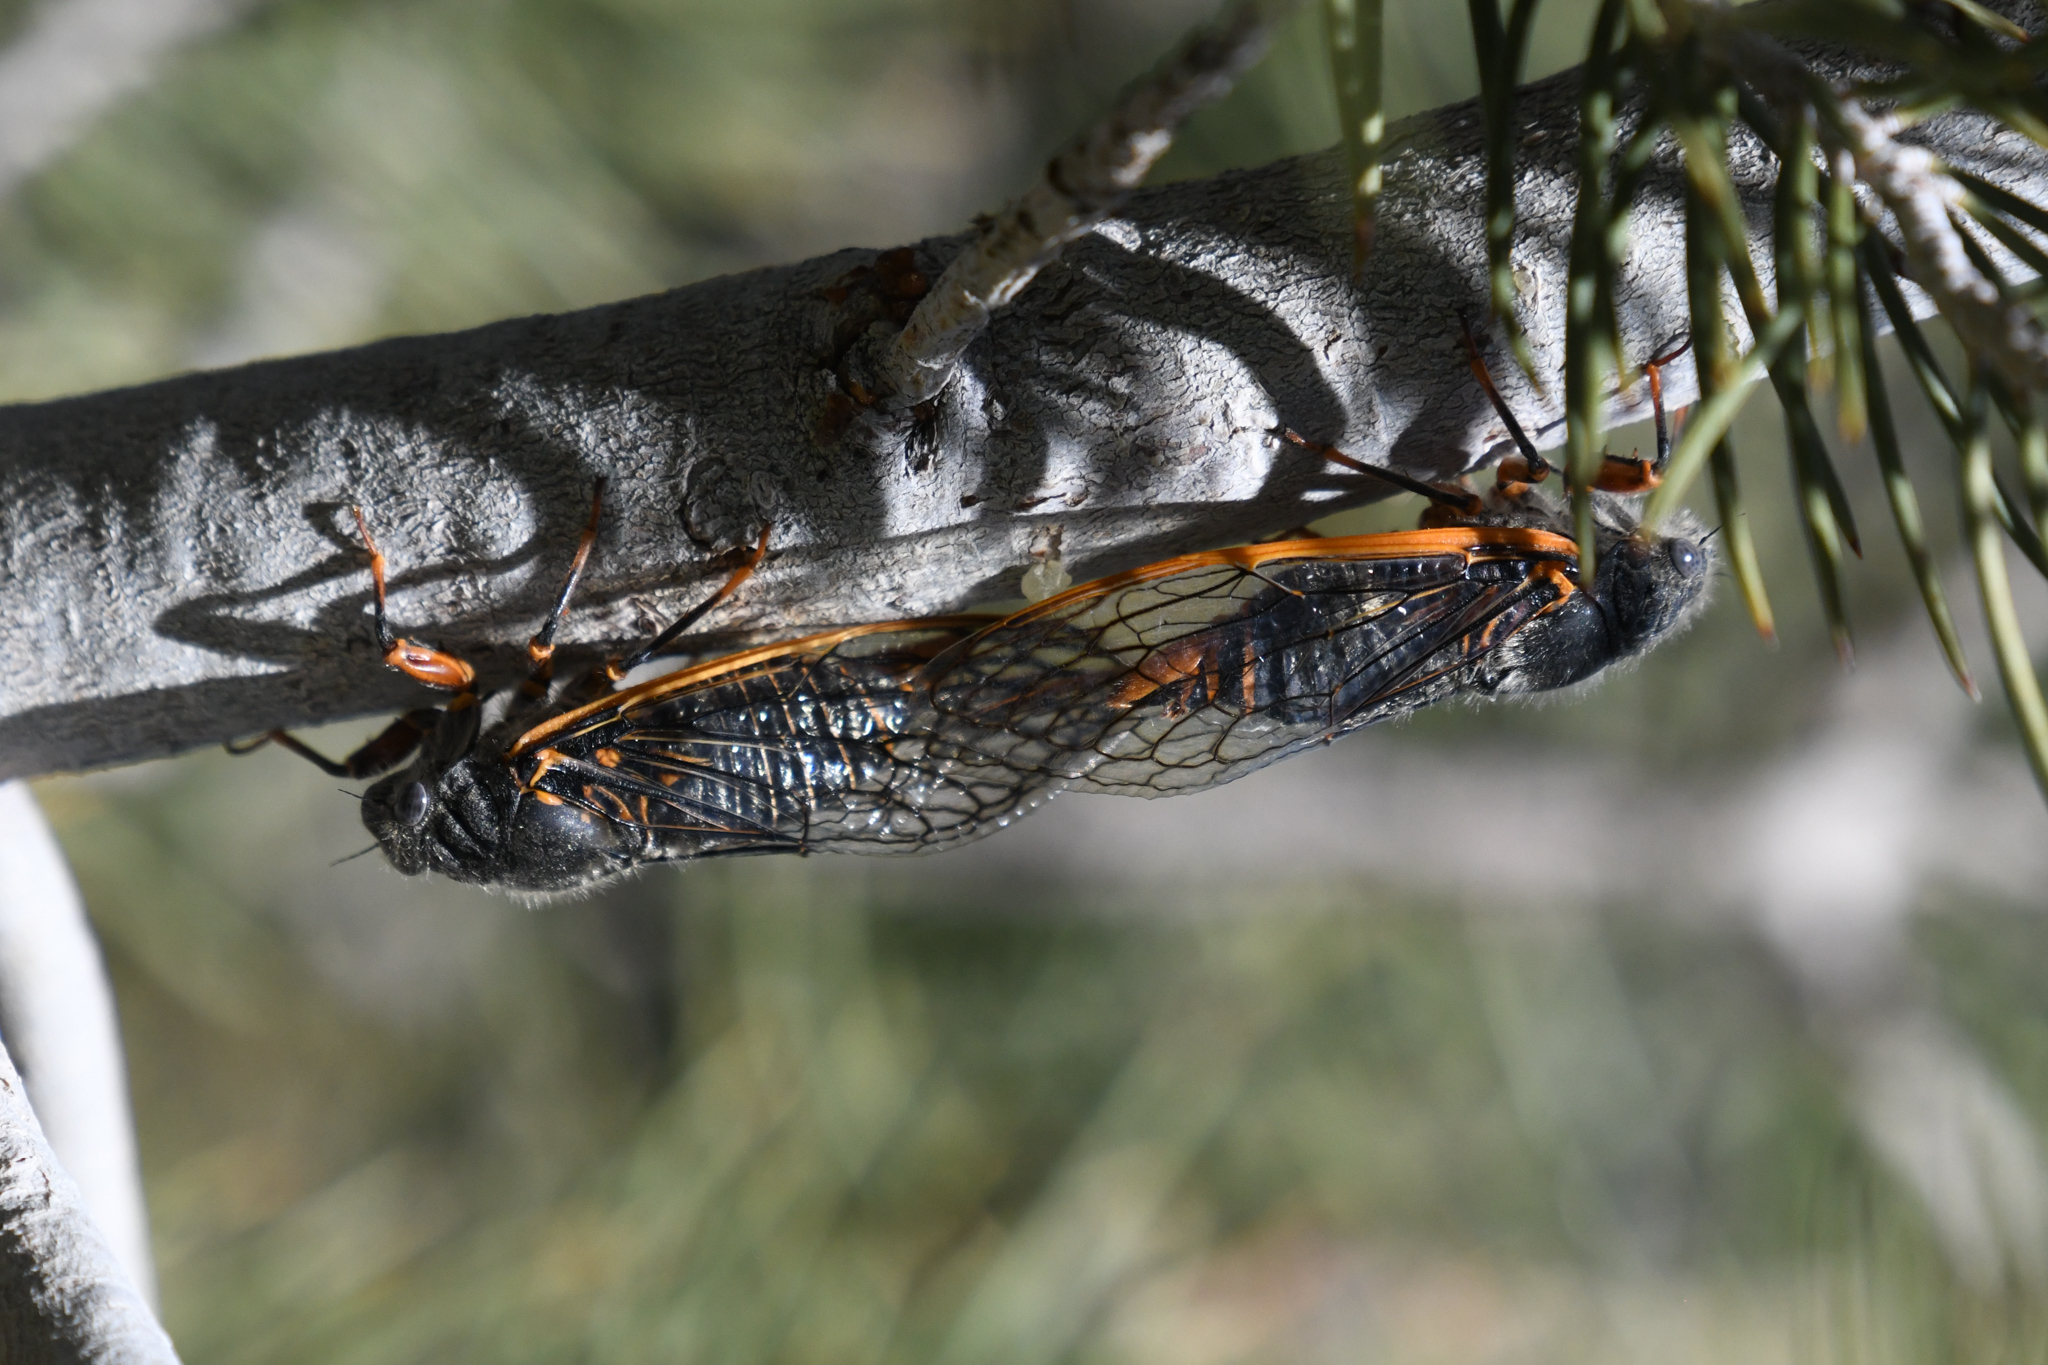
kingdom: Animalia
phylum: Arthropoda
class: Insecta
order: Hemiptera
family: Cicadidae
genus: Okanagana
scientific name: Okanagana magnifica
